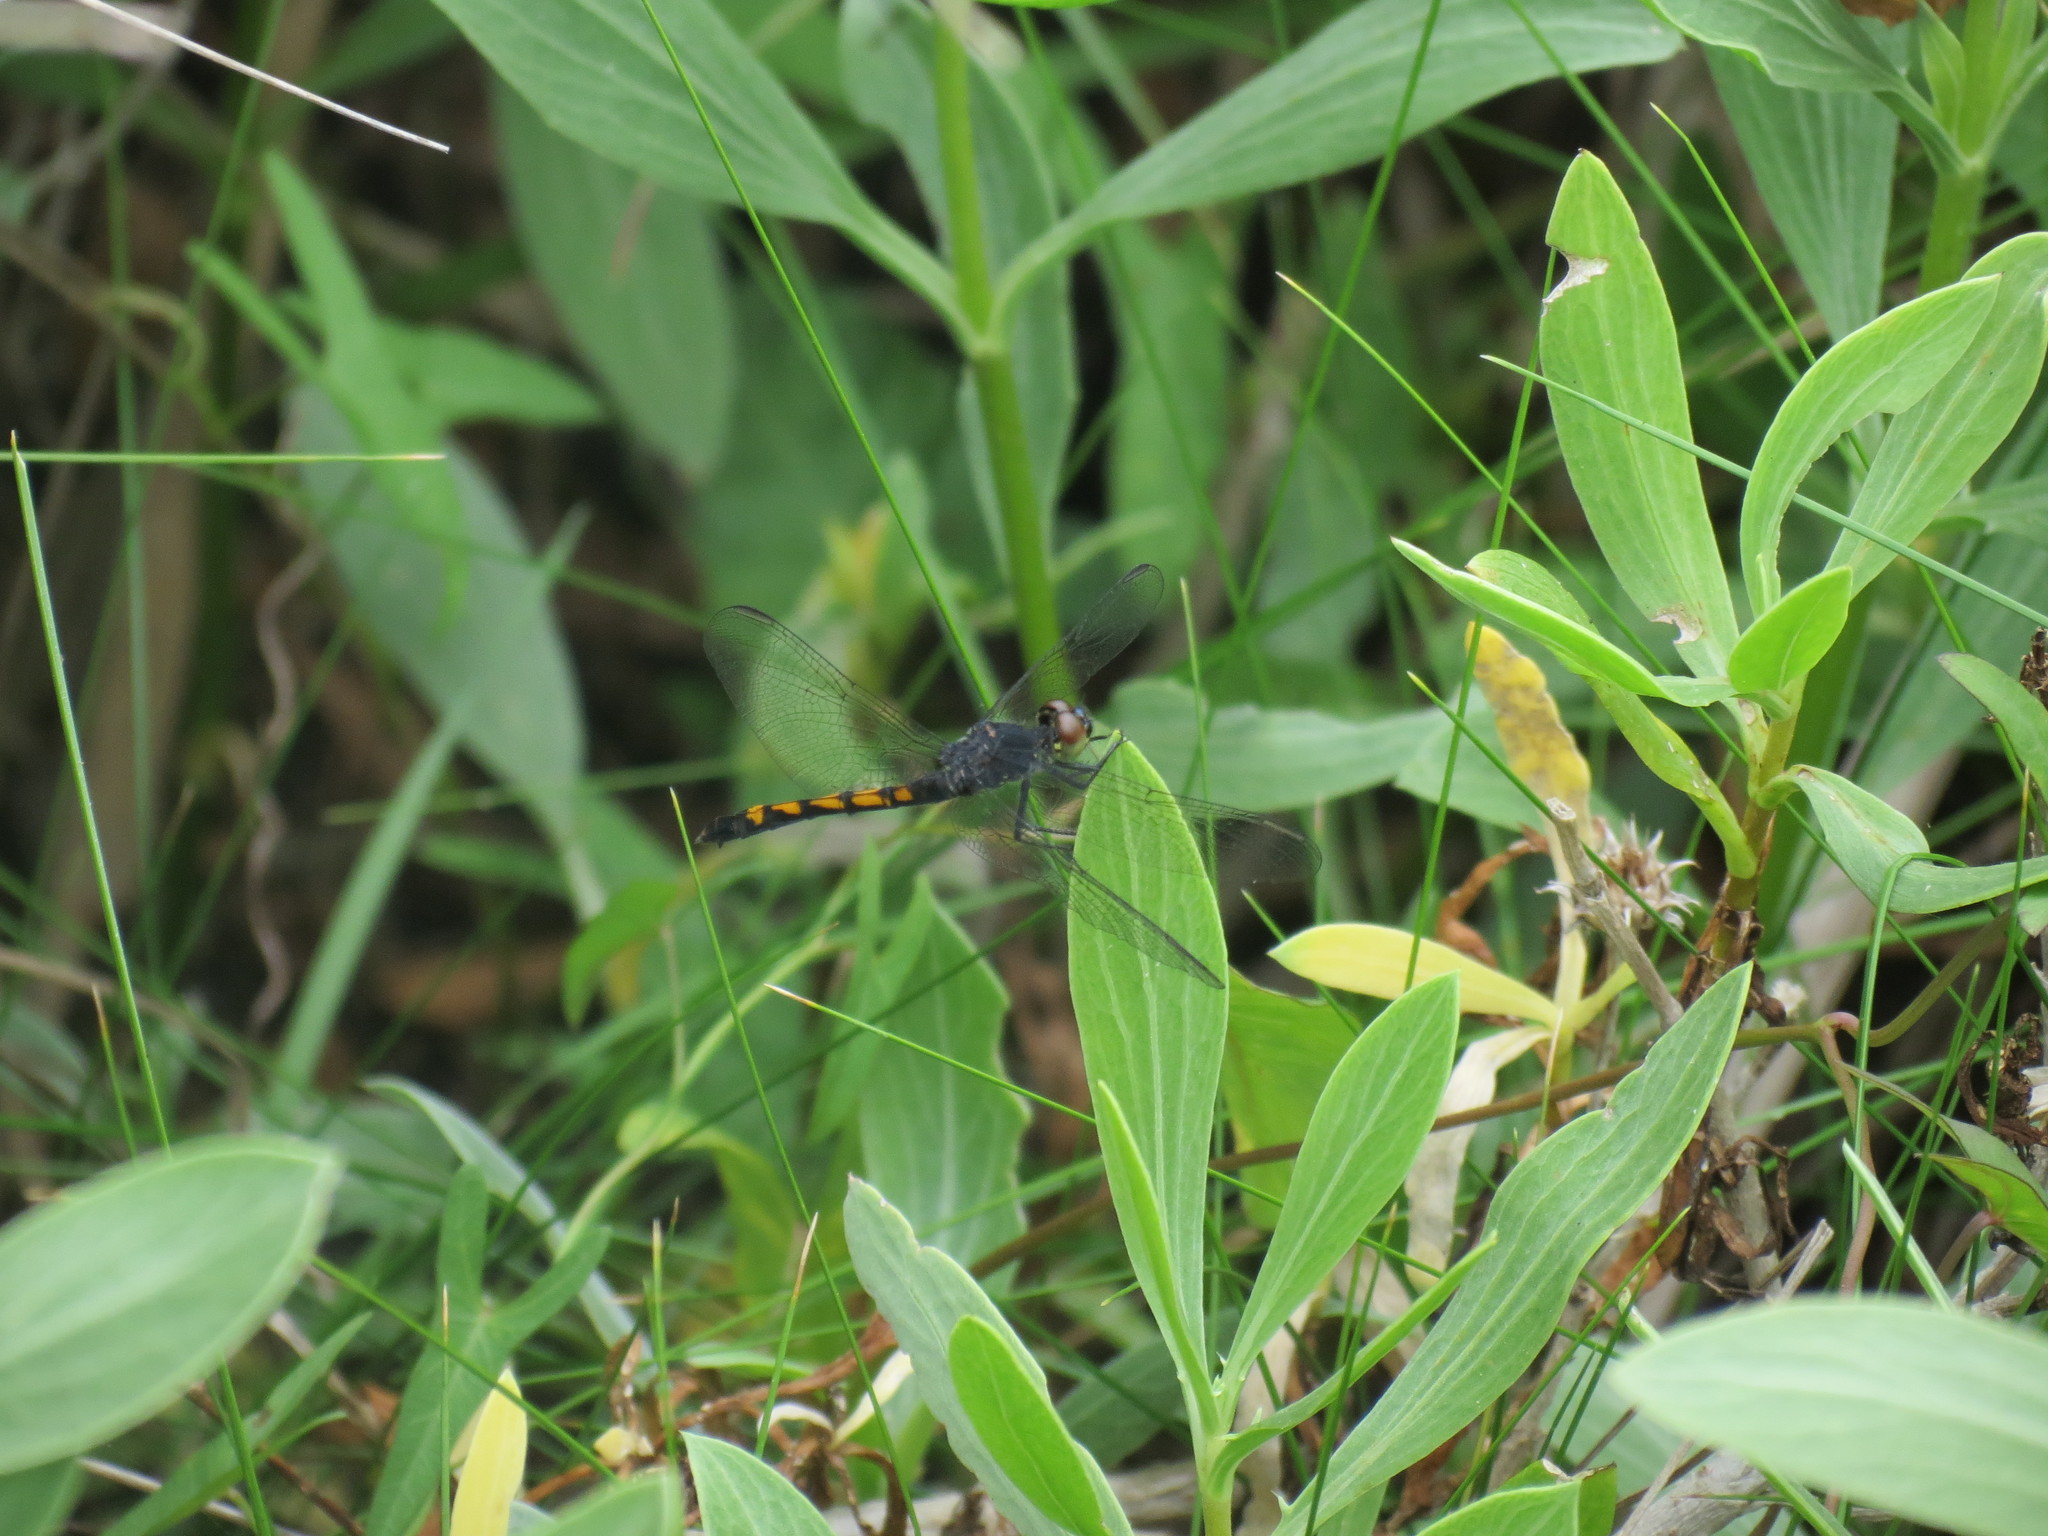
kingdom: Animalia
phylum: Arthropoda
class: Insecta
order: Odonata
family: Libellulidae
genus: Erythrodiplax
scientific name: Erythrodiplax berenice
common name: Seaside dragonlet
